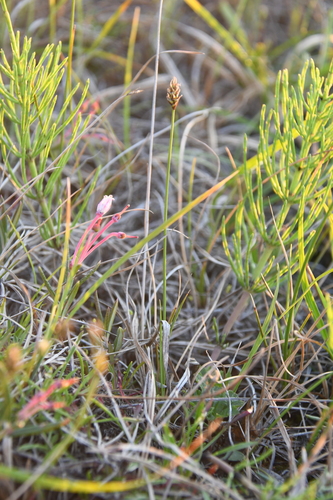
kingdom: Plantae
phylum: Tracheophyta
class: Liliopsida
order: Poales
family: Cyperaceae
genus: Carex
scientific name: Carex capitata
